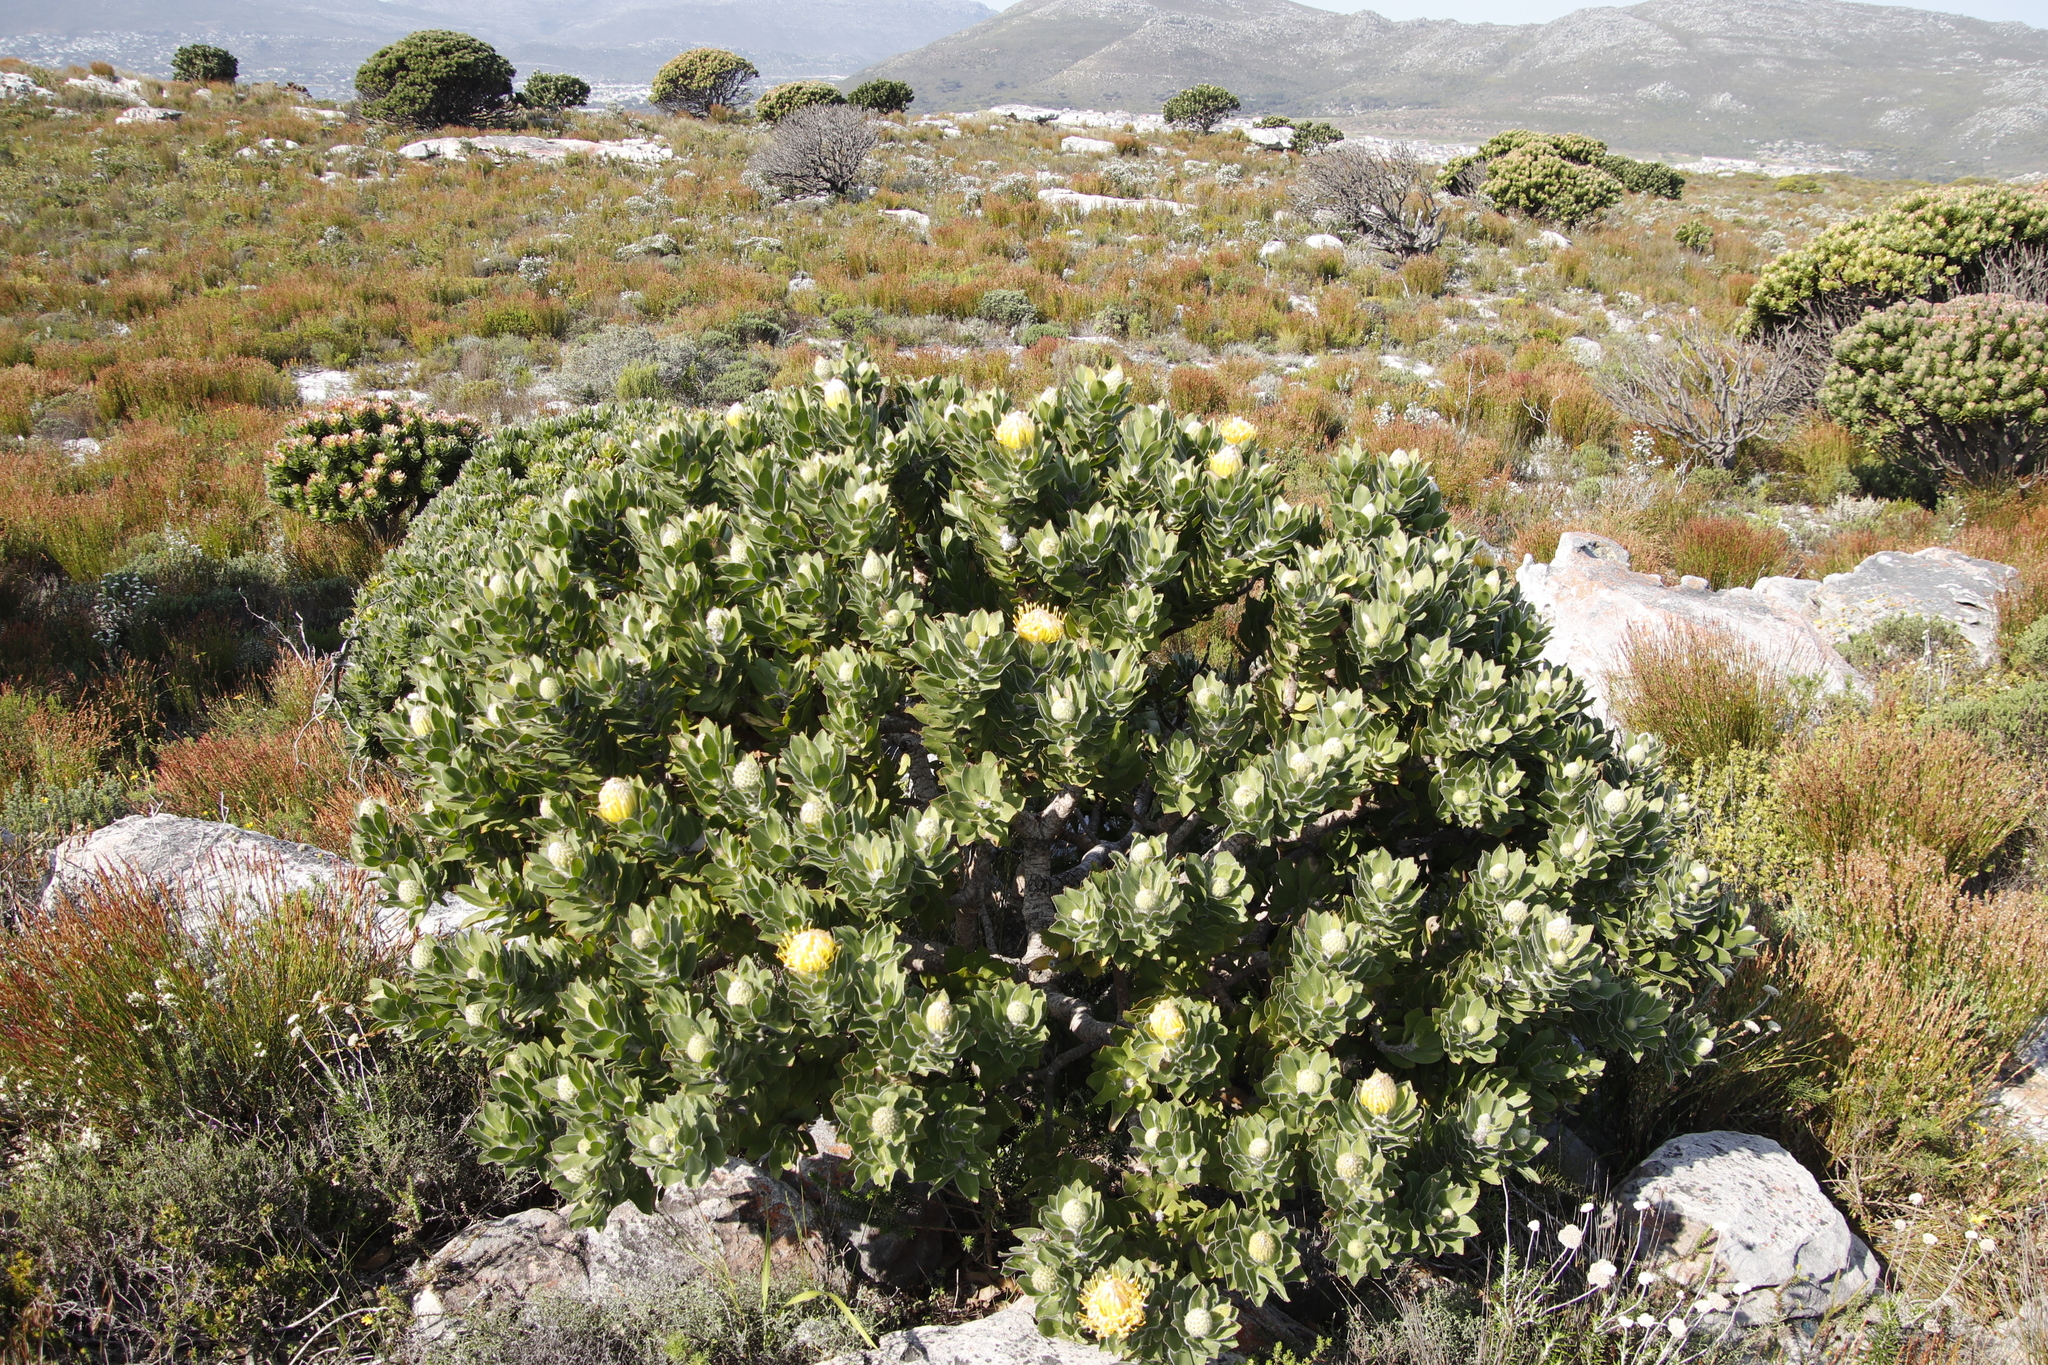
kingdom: Plantae
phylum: Tracheophyta
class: Magnoliopsida
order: Proteales
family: Proteaceae
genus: Leucospermum
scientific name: Leucospermum conocarpodendron
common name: Tree pincushion
